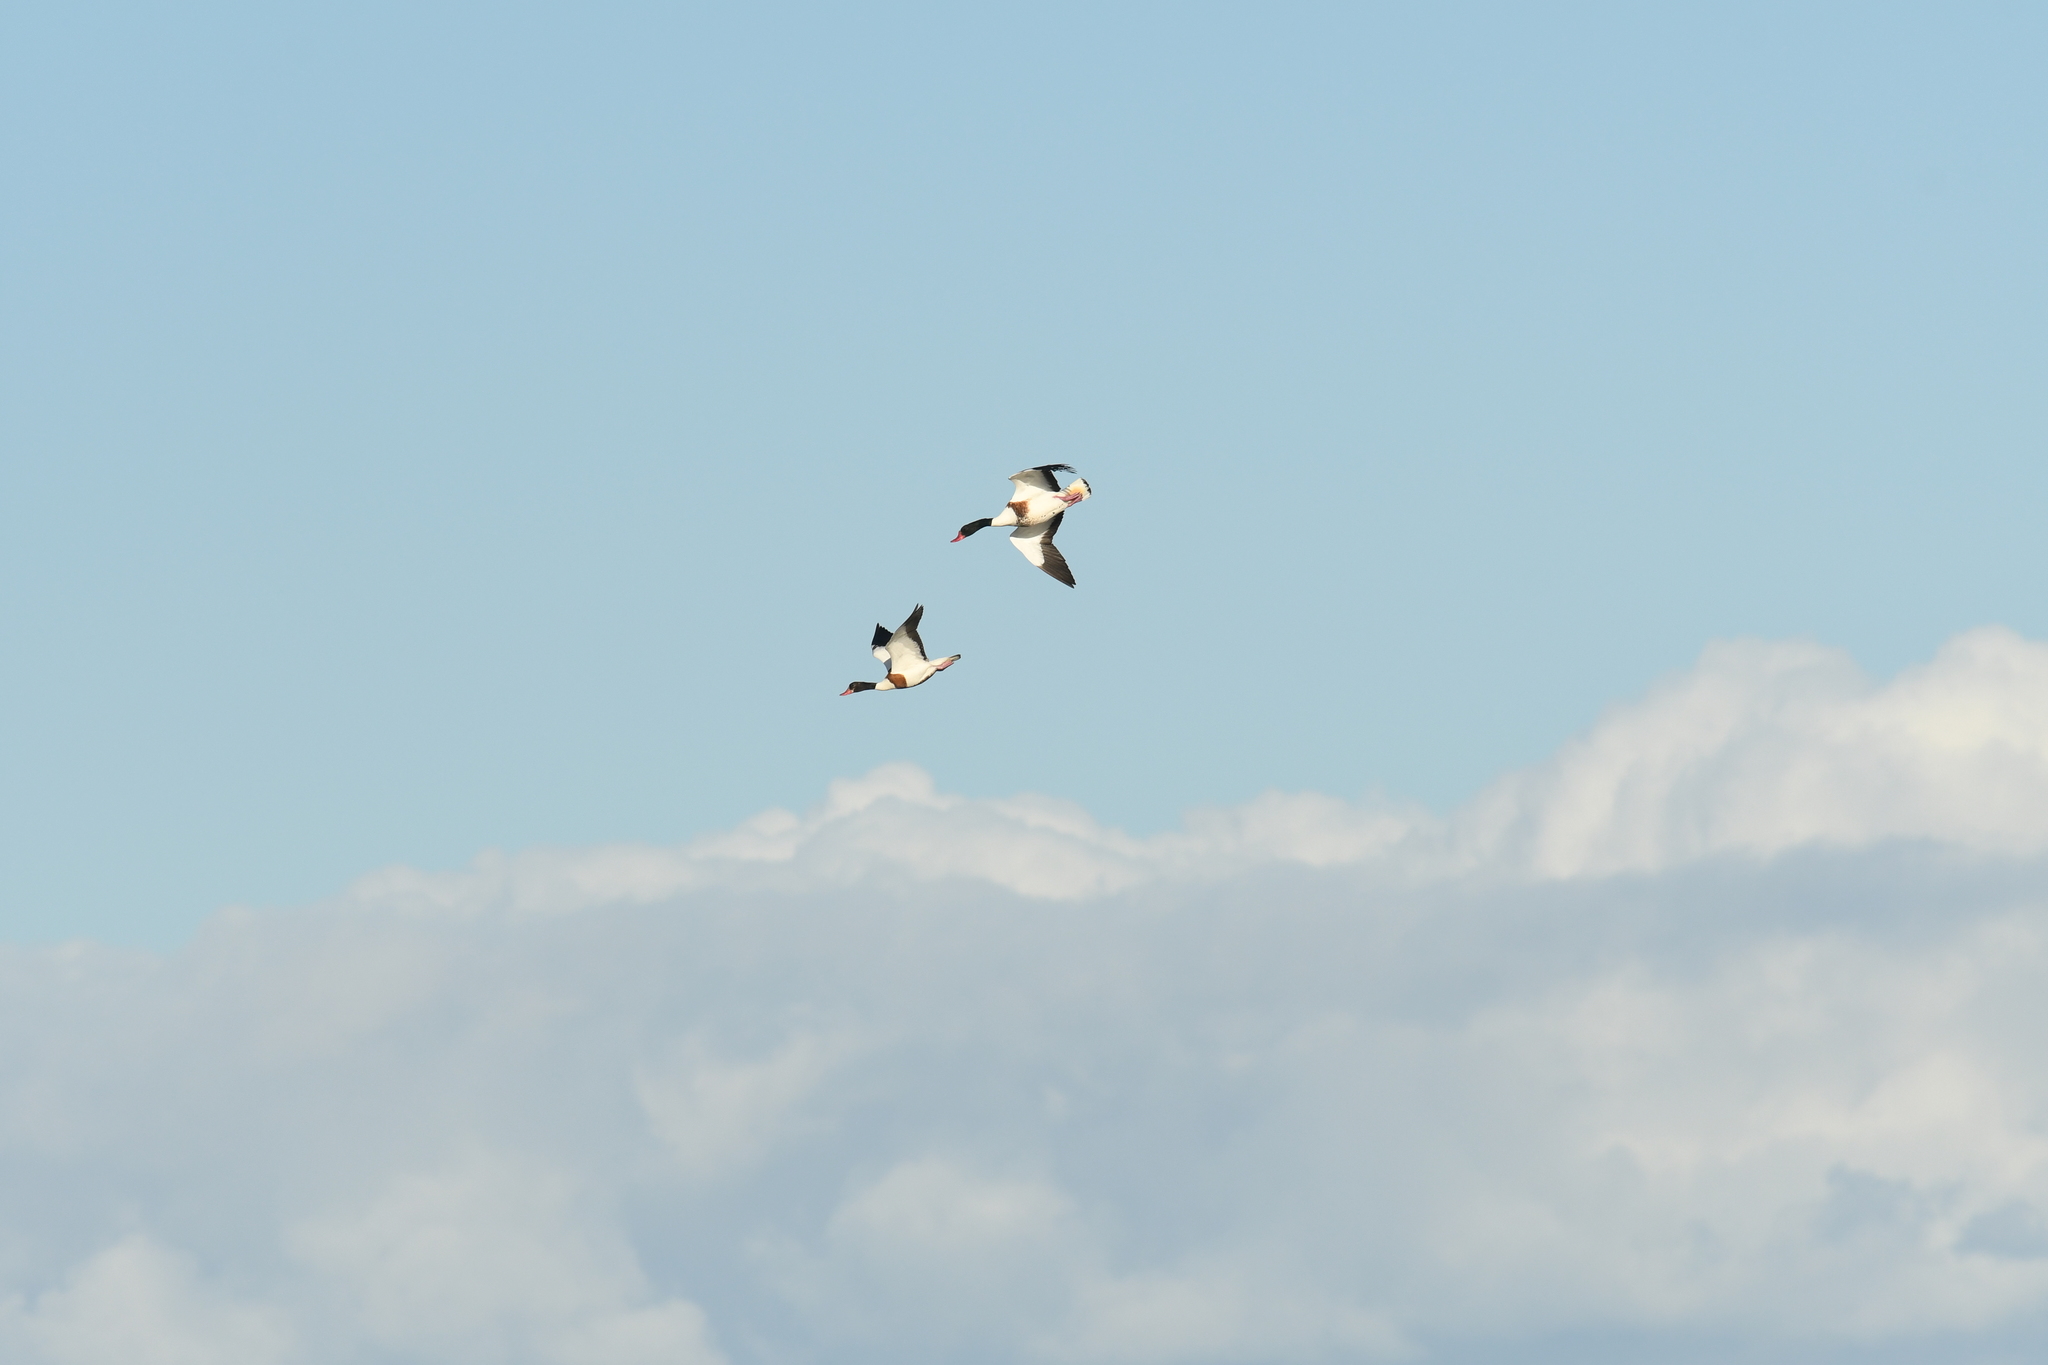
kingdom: Animalia
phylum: Chordata
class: Aves
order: Anseriformes
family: Anatidae
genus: Tadorna
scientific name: Tadorna tadorna
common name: Common shelduck
